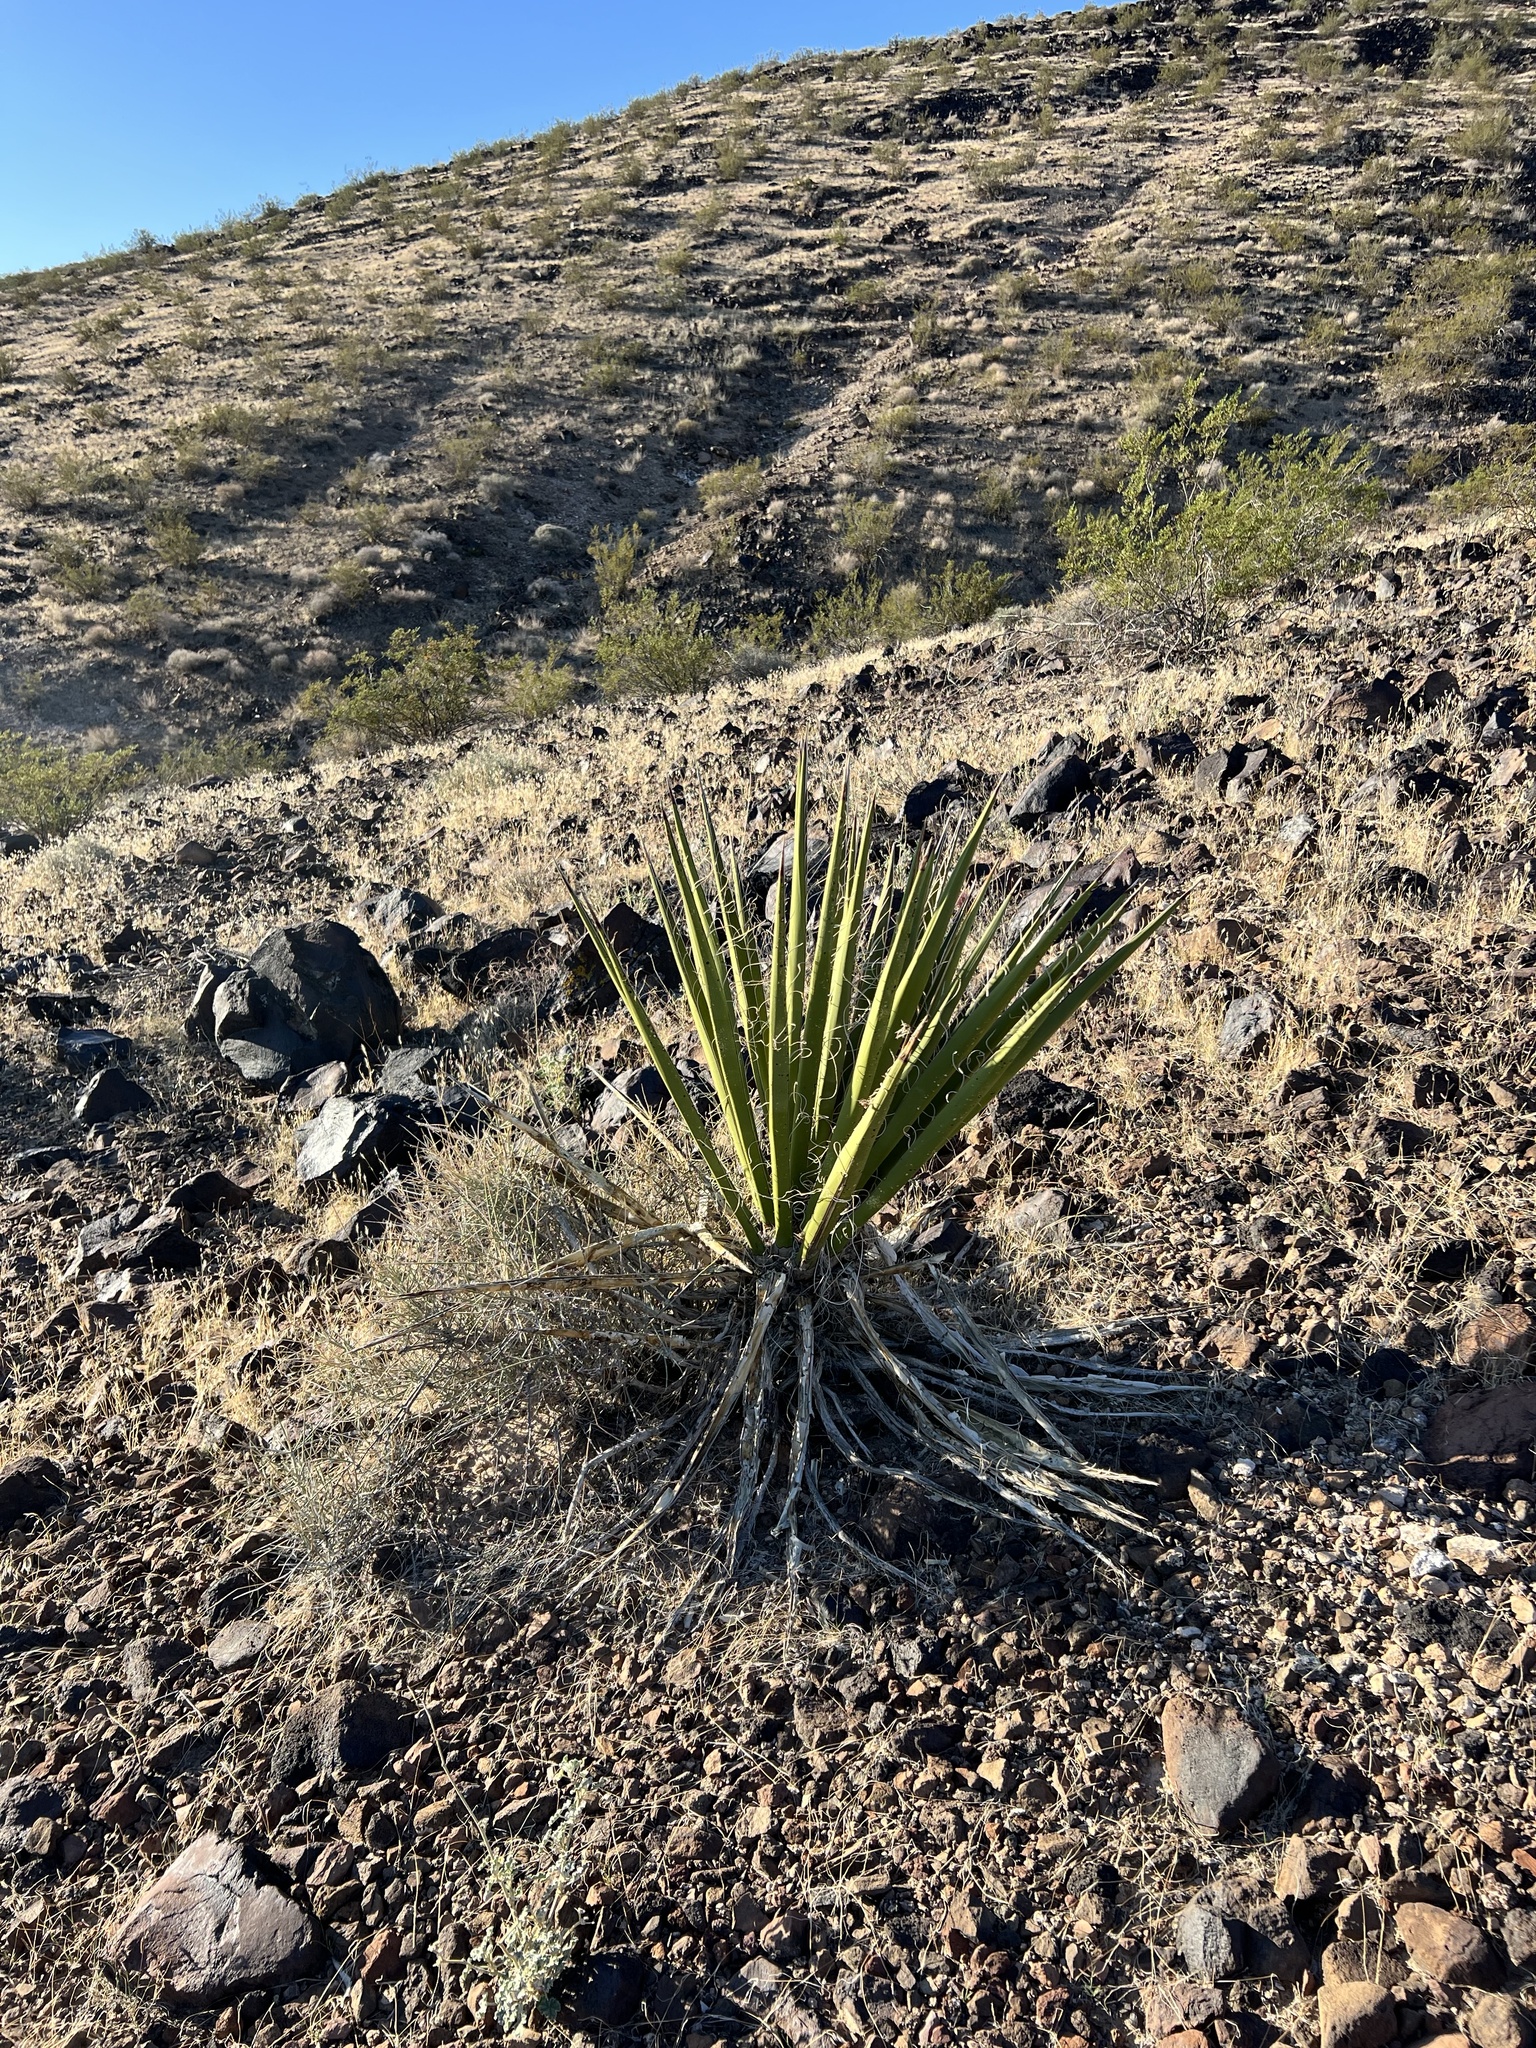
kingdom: Plantae
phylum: Tracheophyta
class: Liliopsida
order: Asparagales
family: Asparagaceae
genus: Yucca
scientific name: Yucca schidigera
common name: Mojave yucca
